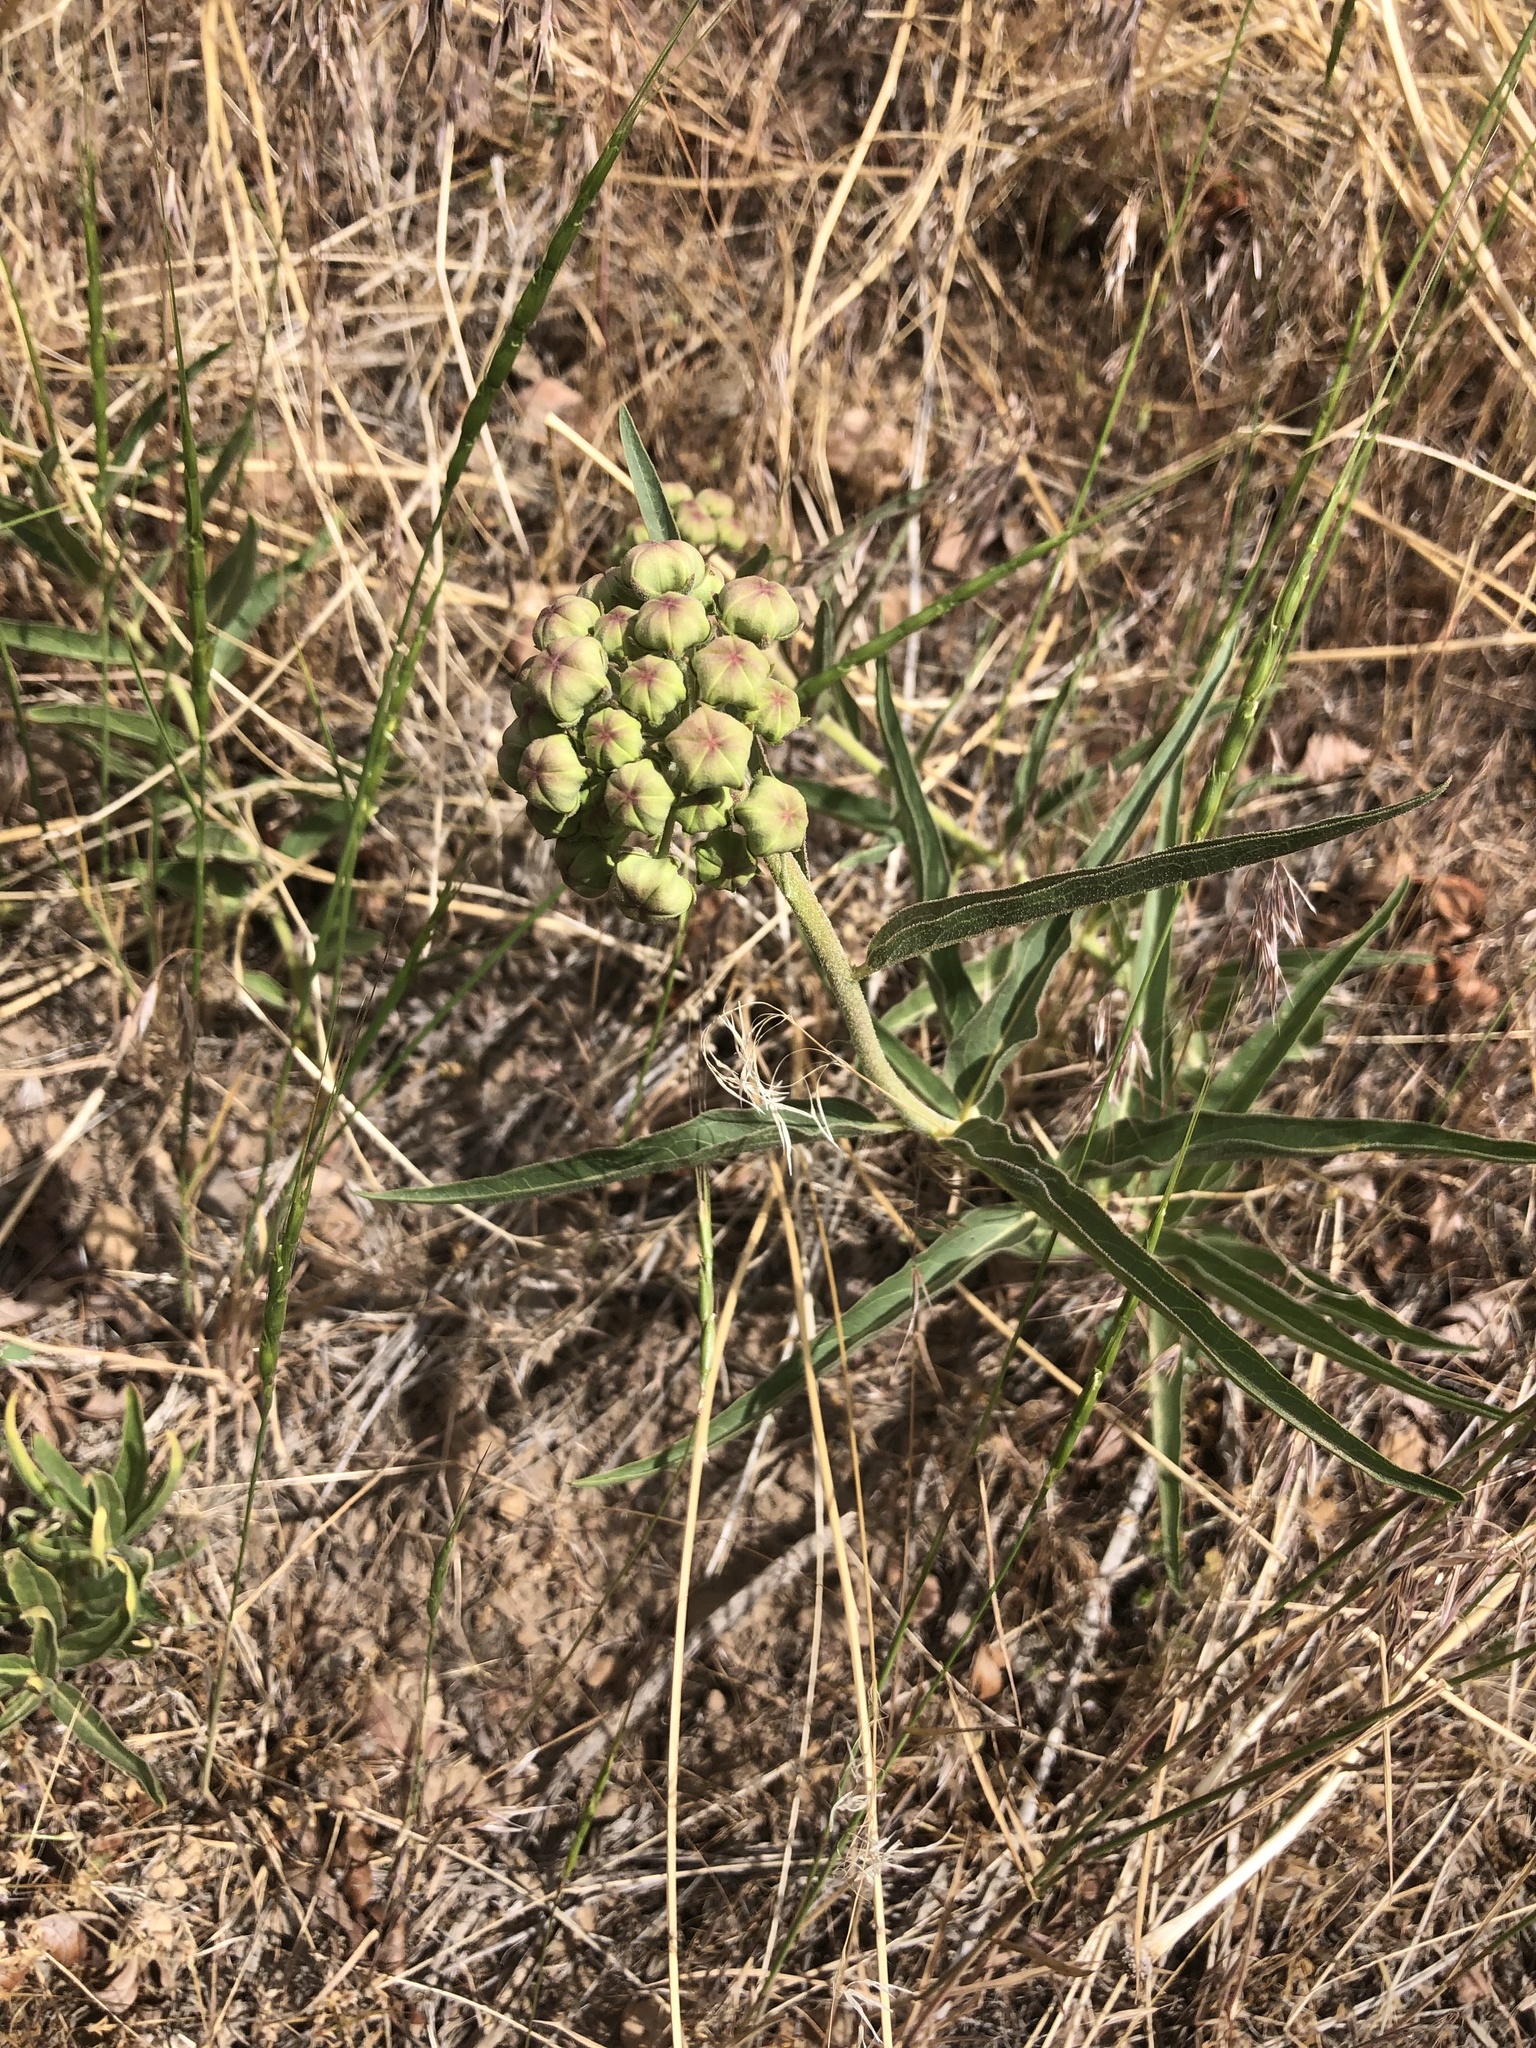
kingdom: Plantae
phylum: Tracheophyta
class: Magnoliopsida
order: Gentianales
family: Apocynaceae
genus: Asclepias
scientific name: Asclepias asperula
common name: Antelope horns
